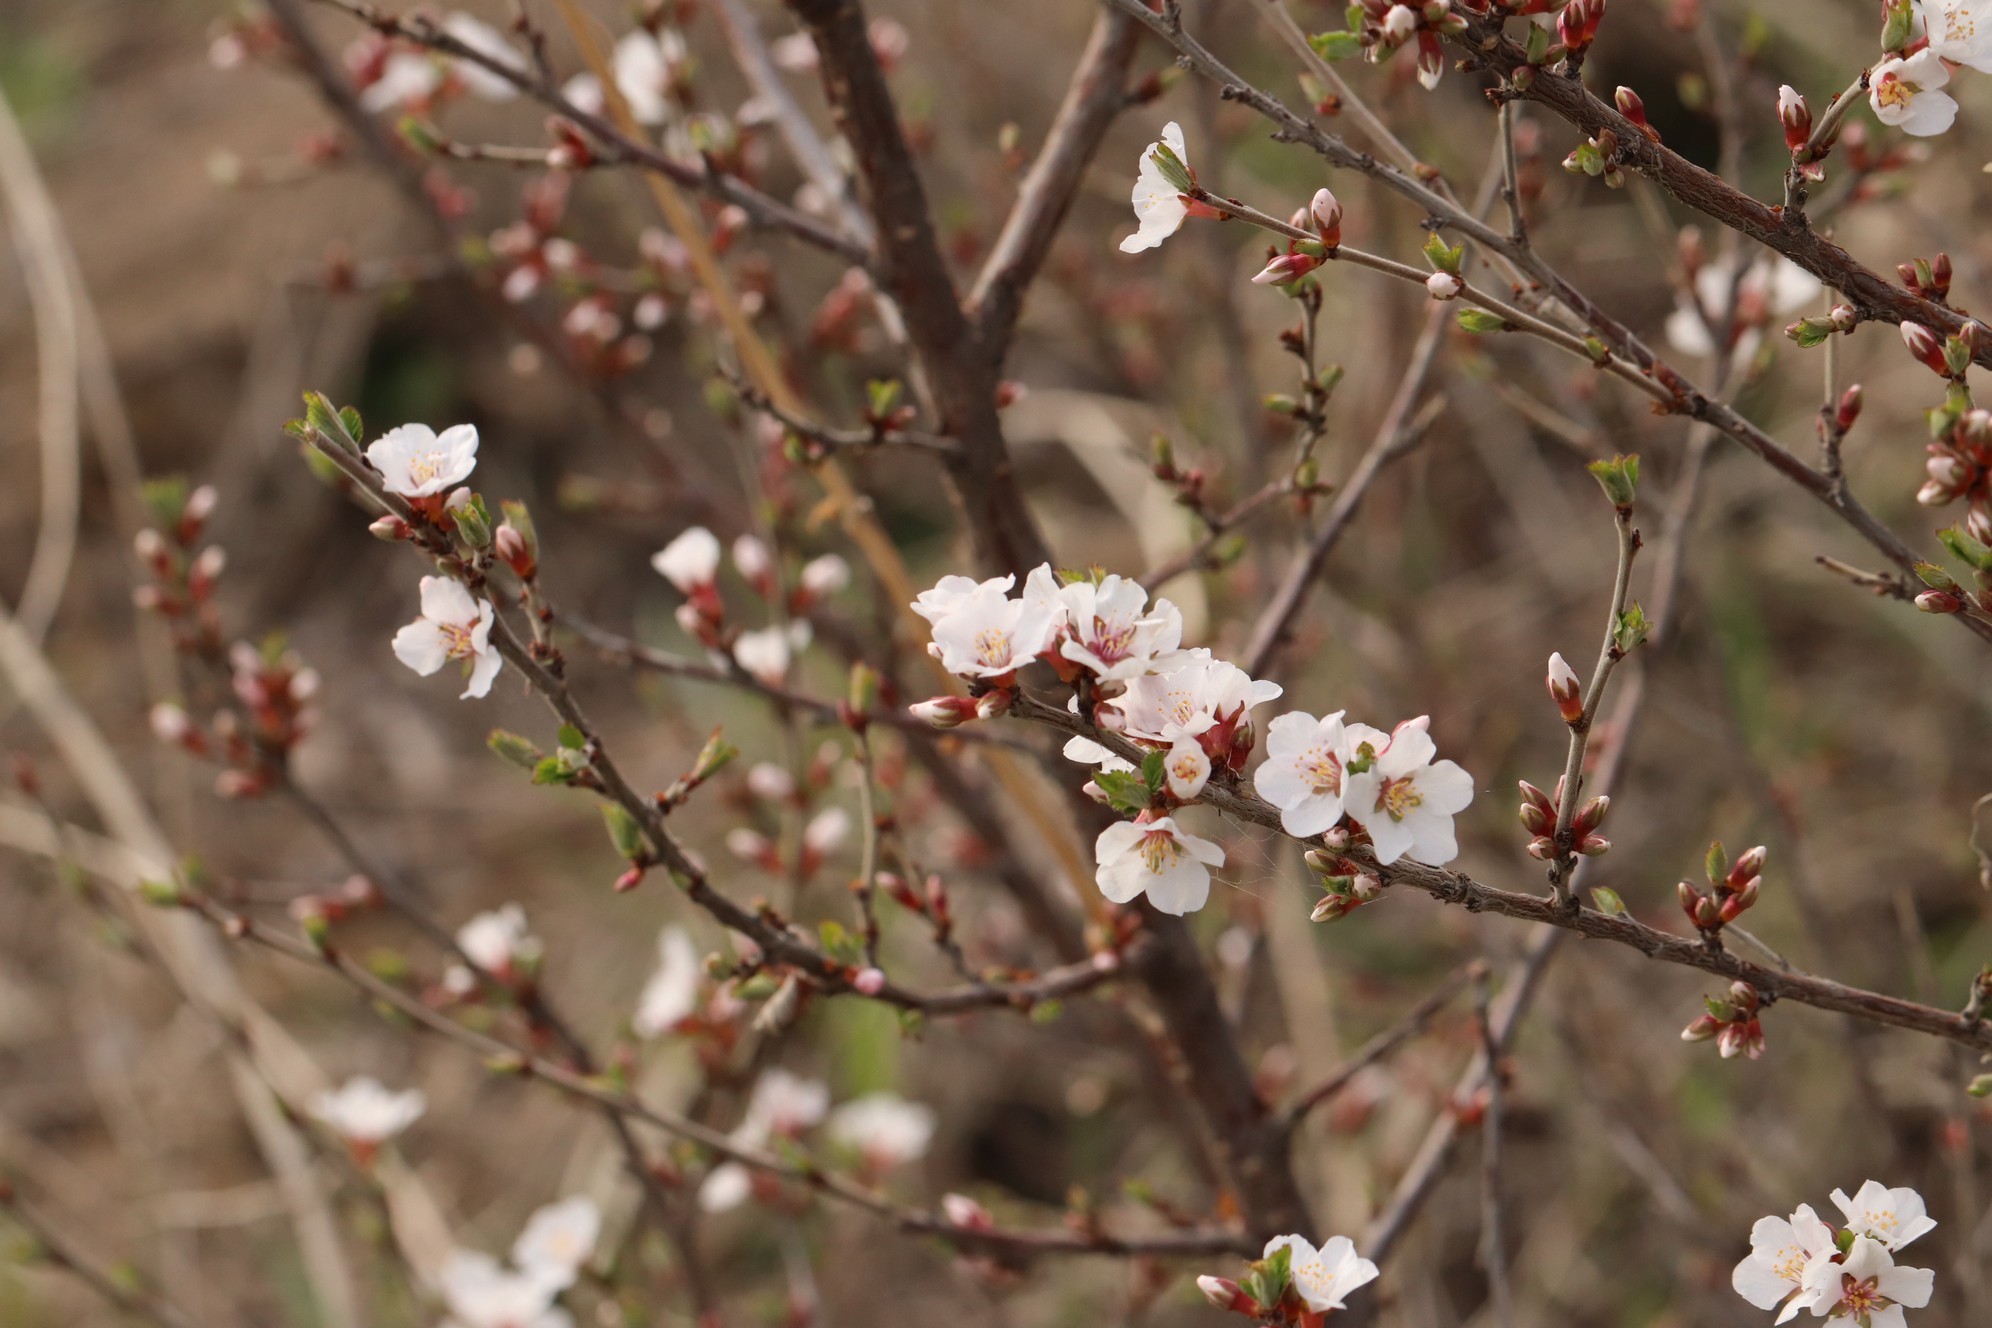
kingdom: Plantae
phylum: Tracheophyta
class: Magnoliopsida
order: Rosales
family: Rosaceae
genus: Prunus
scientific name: Prunus tomentosa
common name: Nanking cherry
